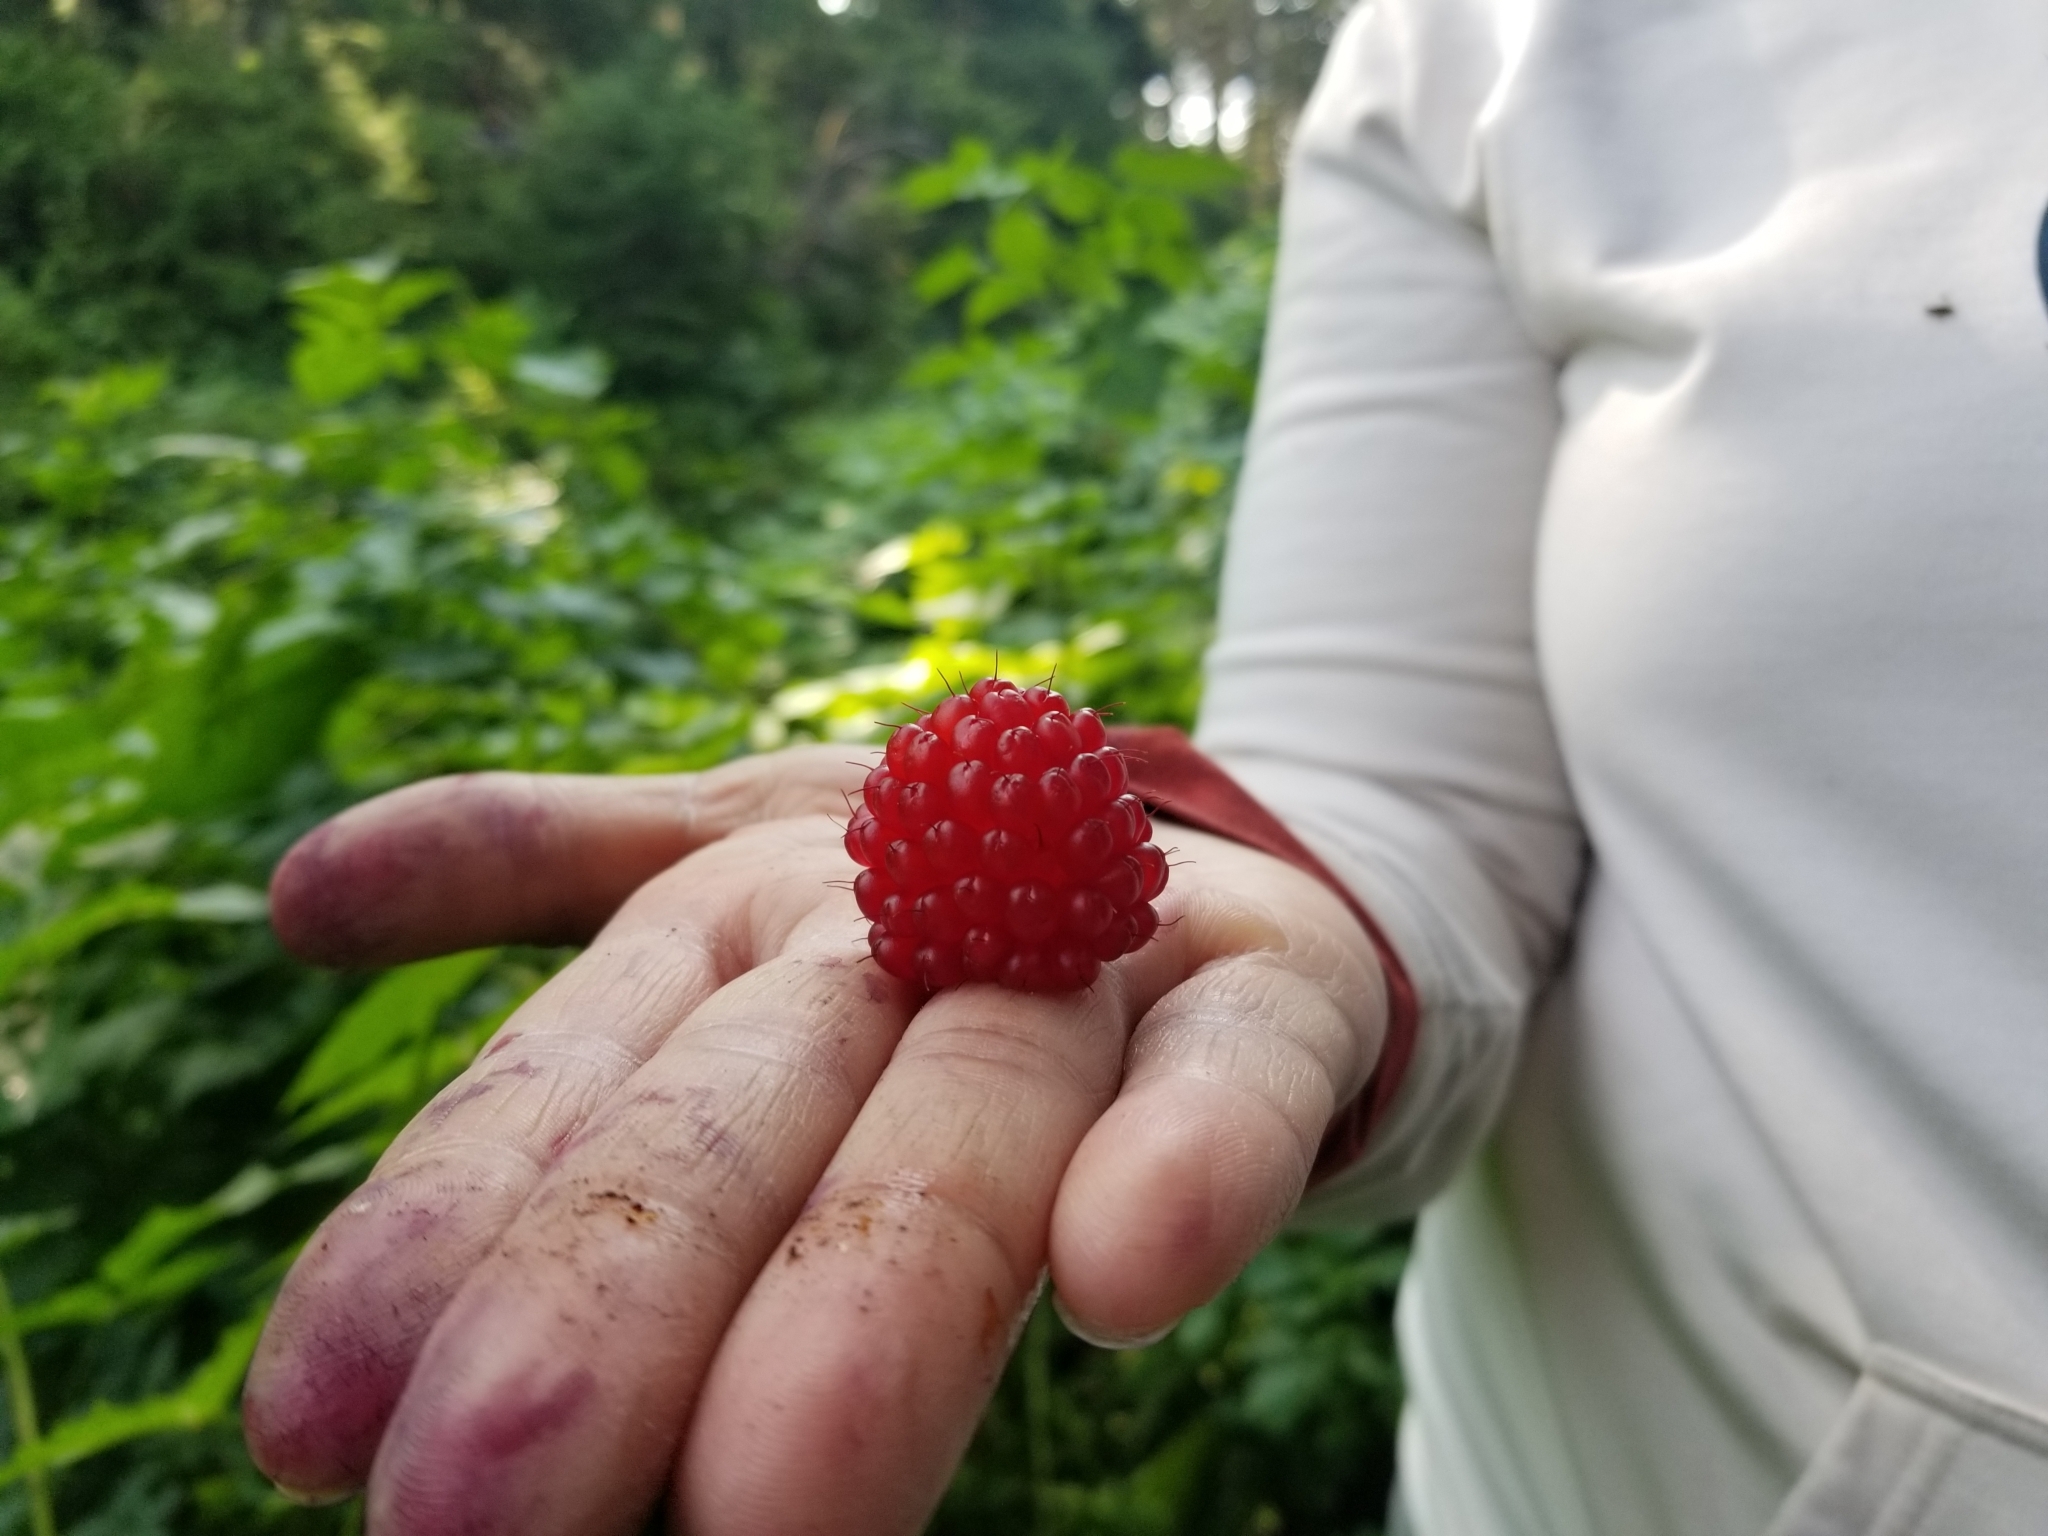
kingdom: Plantae
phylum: Tracheophyta
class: Magnoliopsida
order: Rosales
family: Rosaceae
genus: Rubus
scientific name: Rubus spectabilis
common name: Salmonberry
